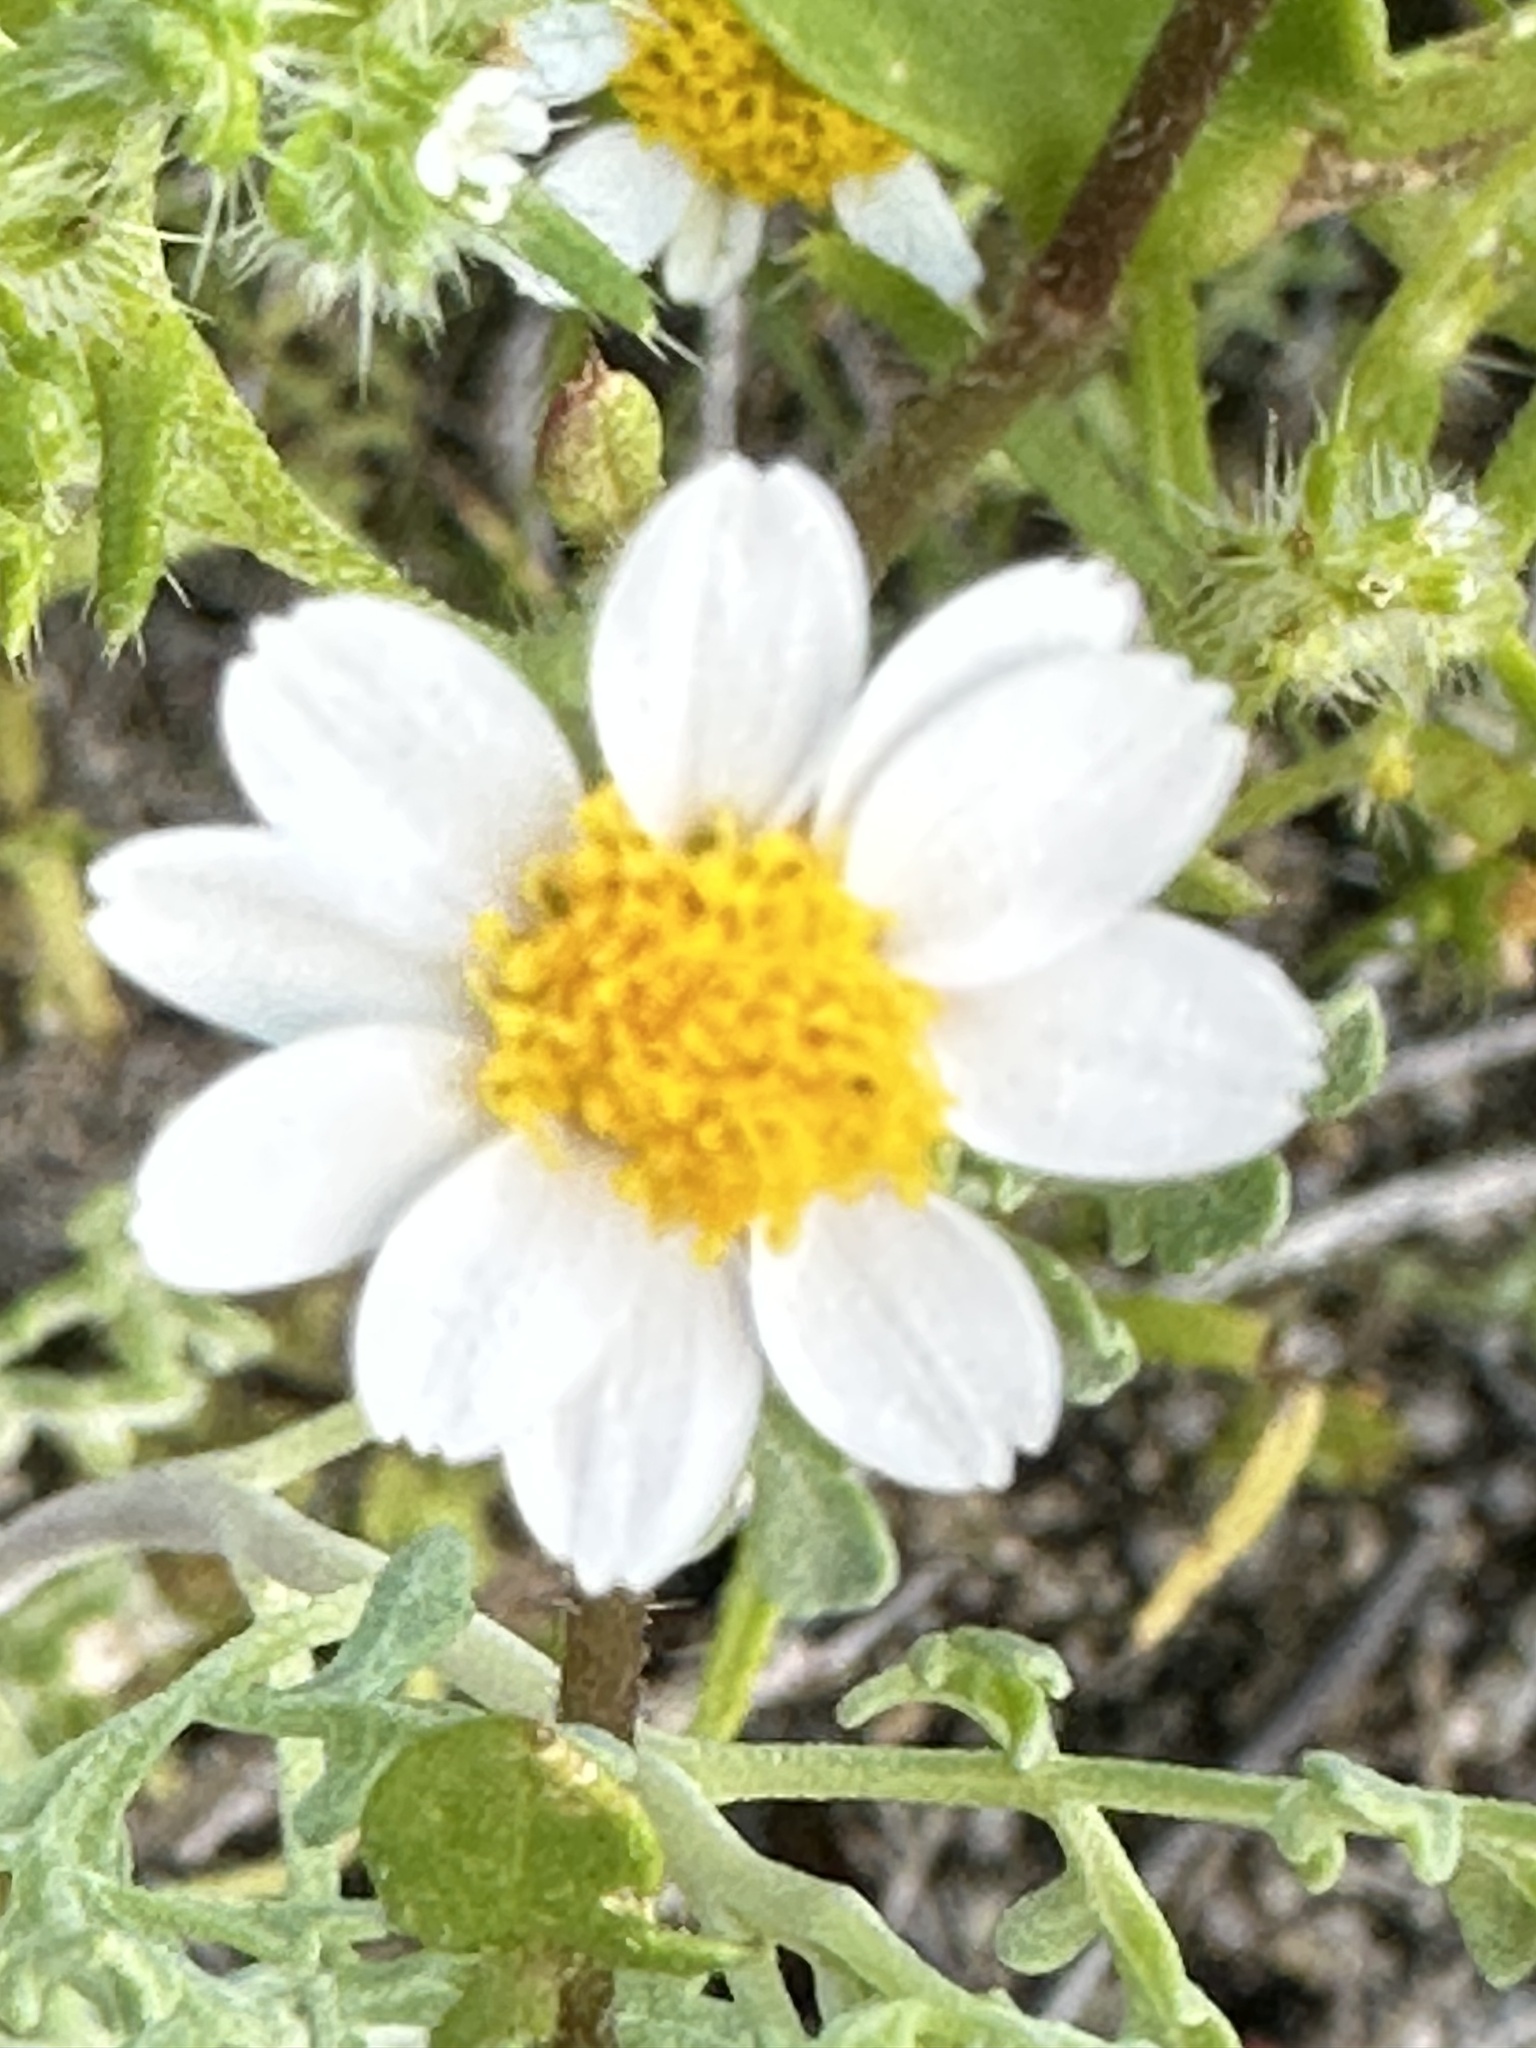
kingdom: Plantae
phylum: Tracheophyta
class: Magnoliopsida
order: Asterales
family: Asteraceae
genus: Laphamia
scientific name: Laphamia emoryi
